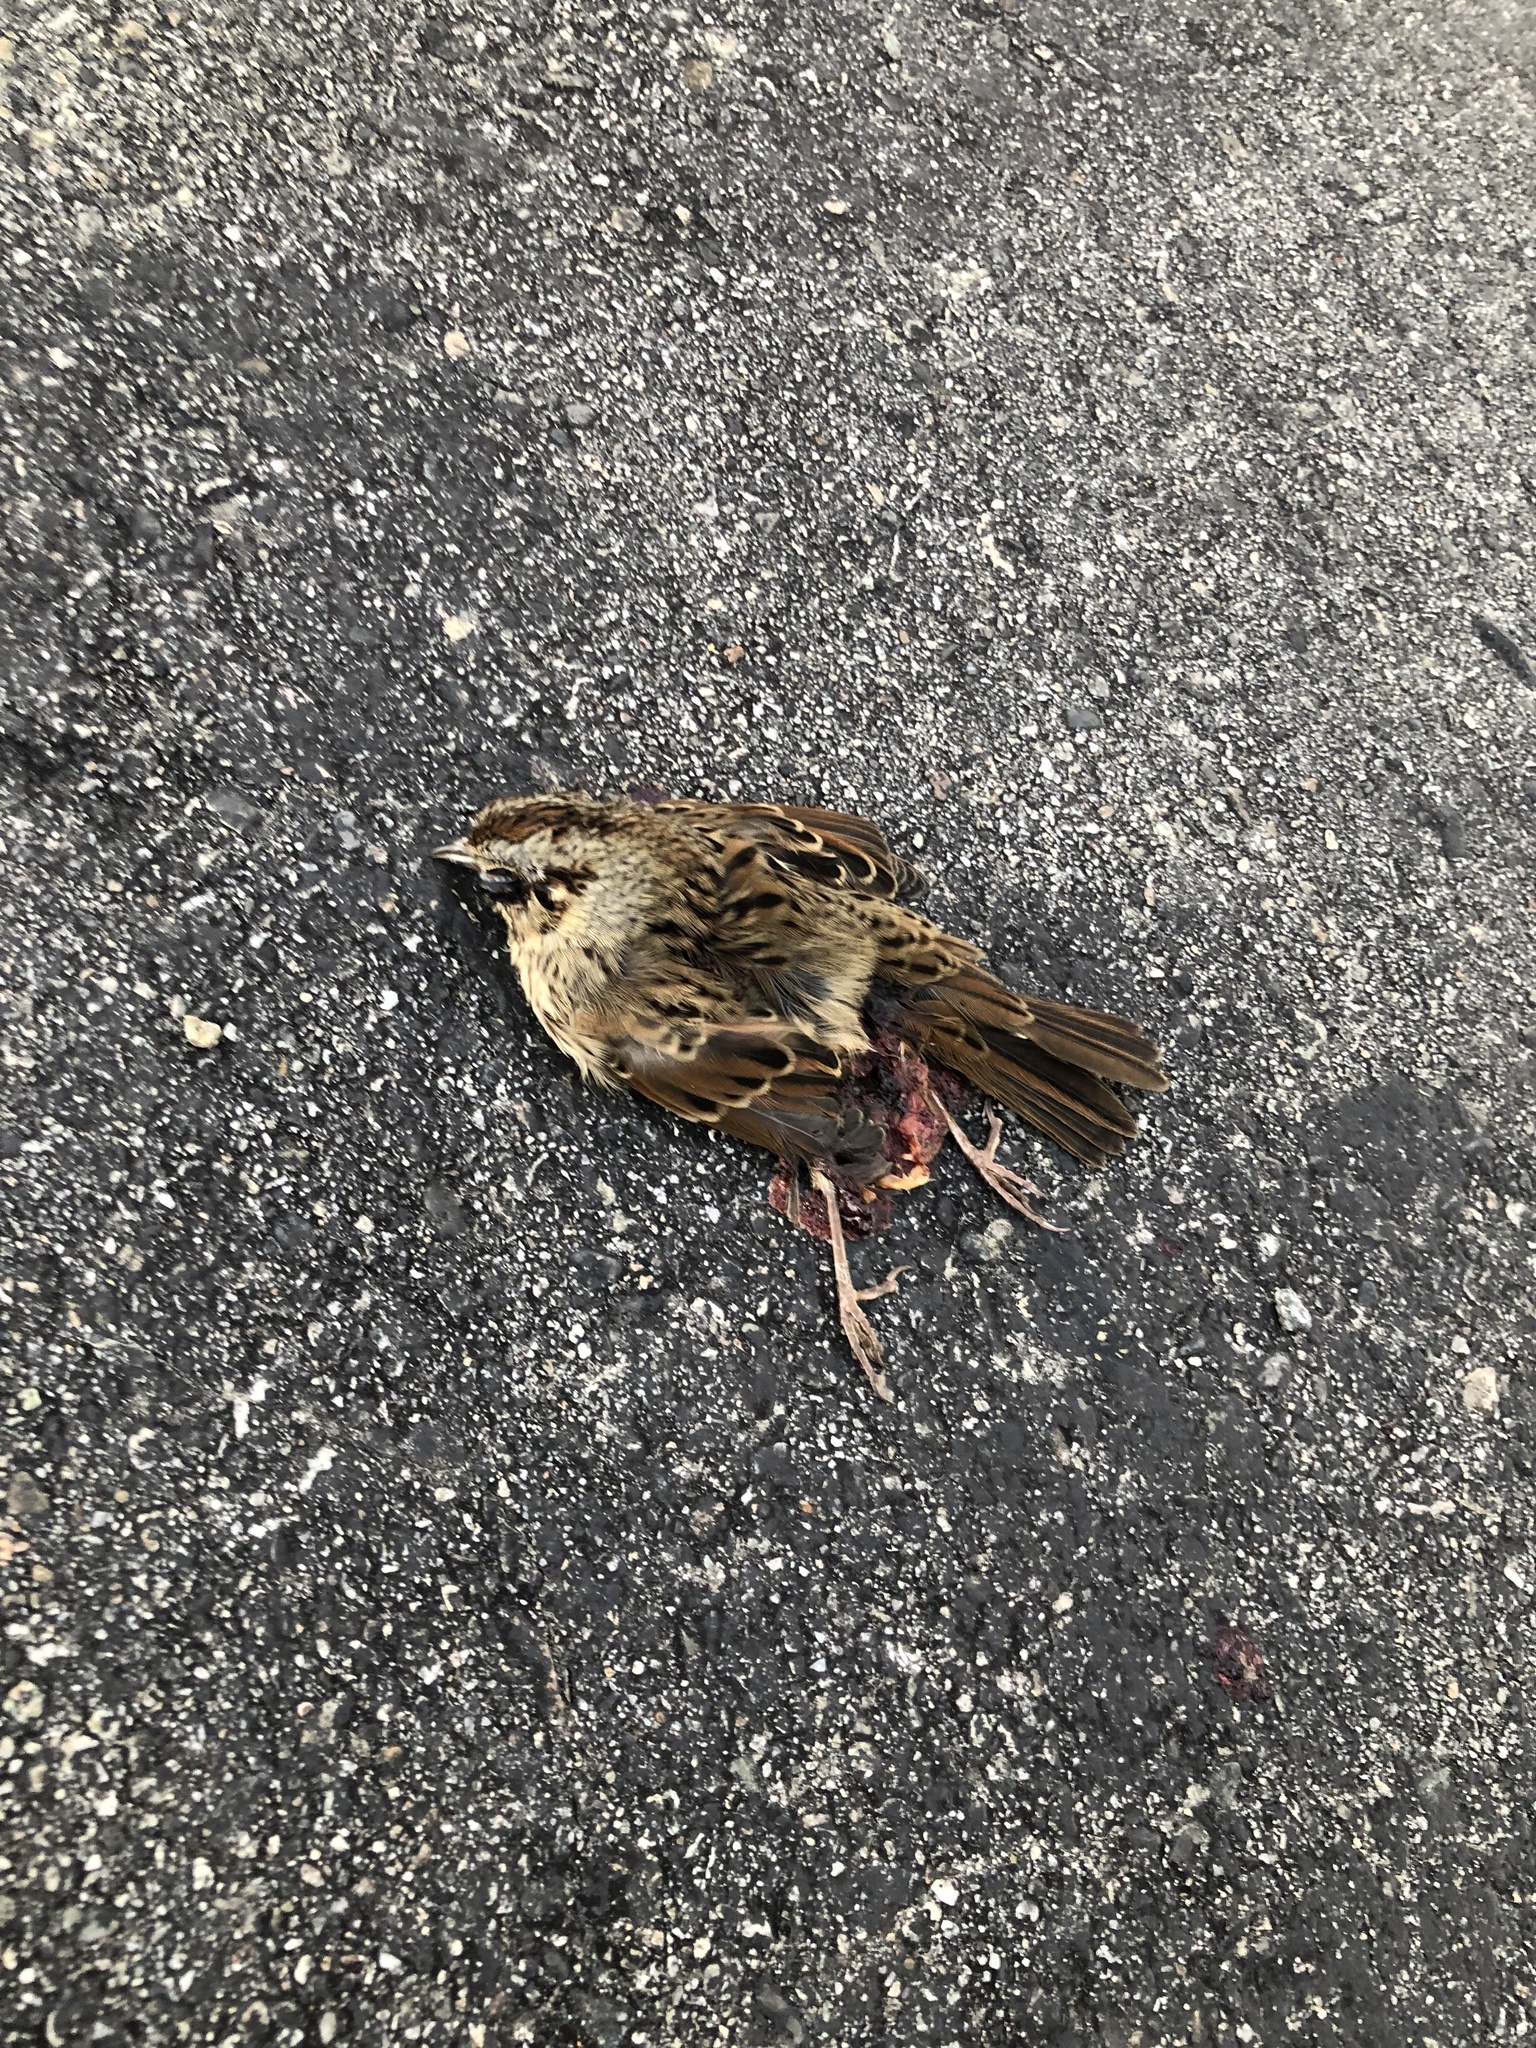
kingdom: Animalia
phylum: Chordata
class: Aves
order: Passeriformes
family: Passerellidae
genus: Melospiza
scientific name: Melospiza lincolnii
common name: Lincoln's sparrow
